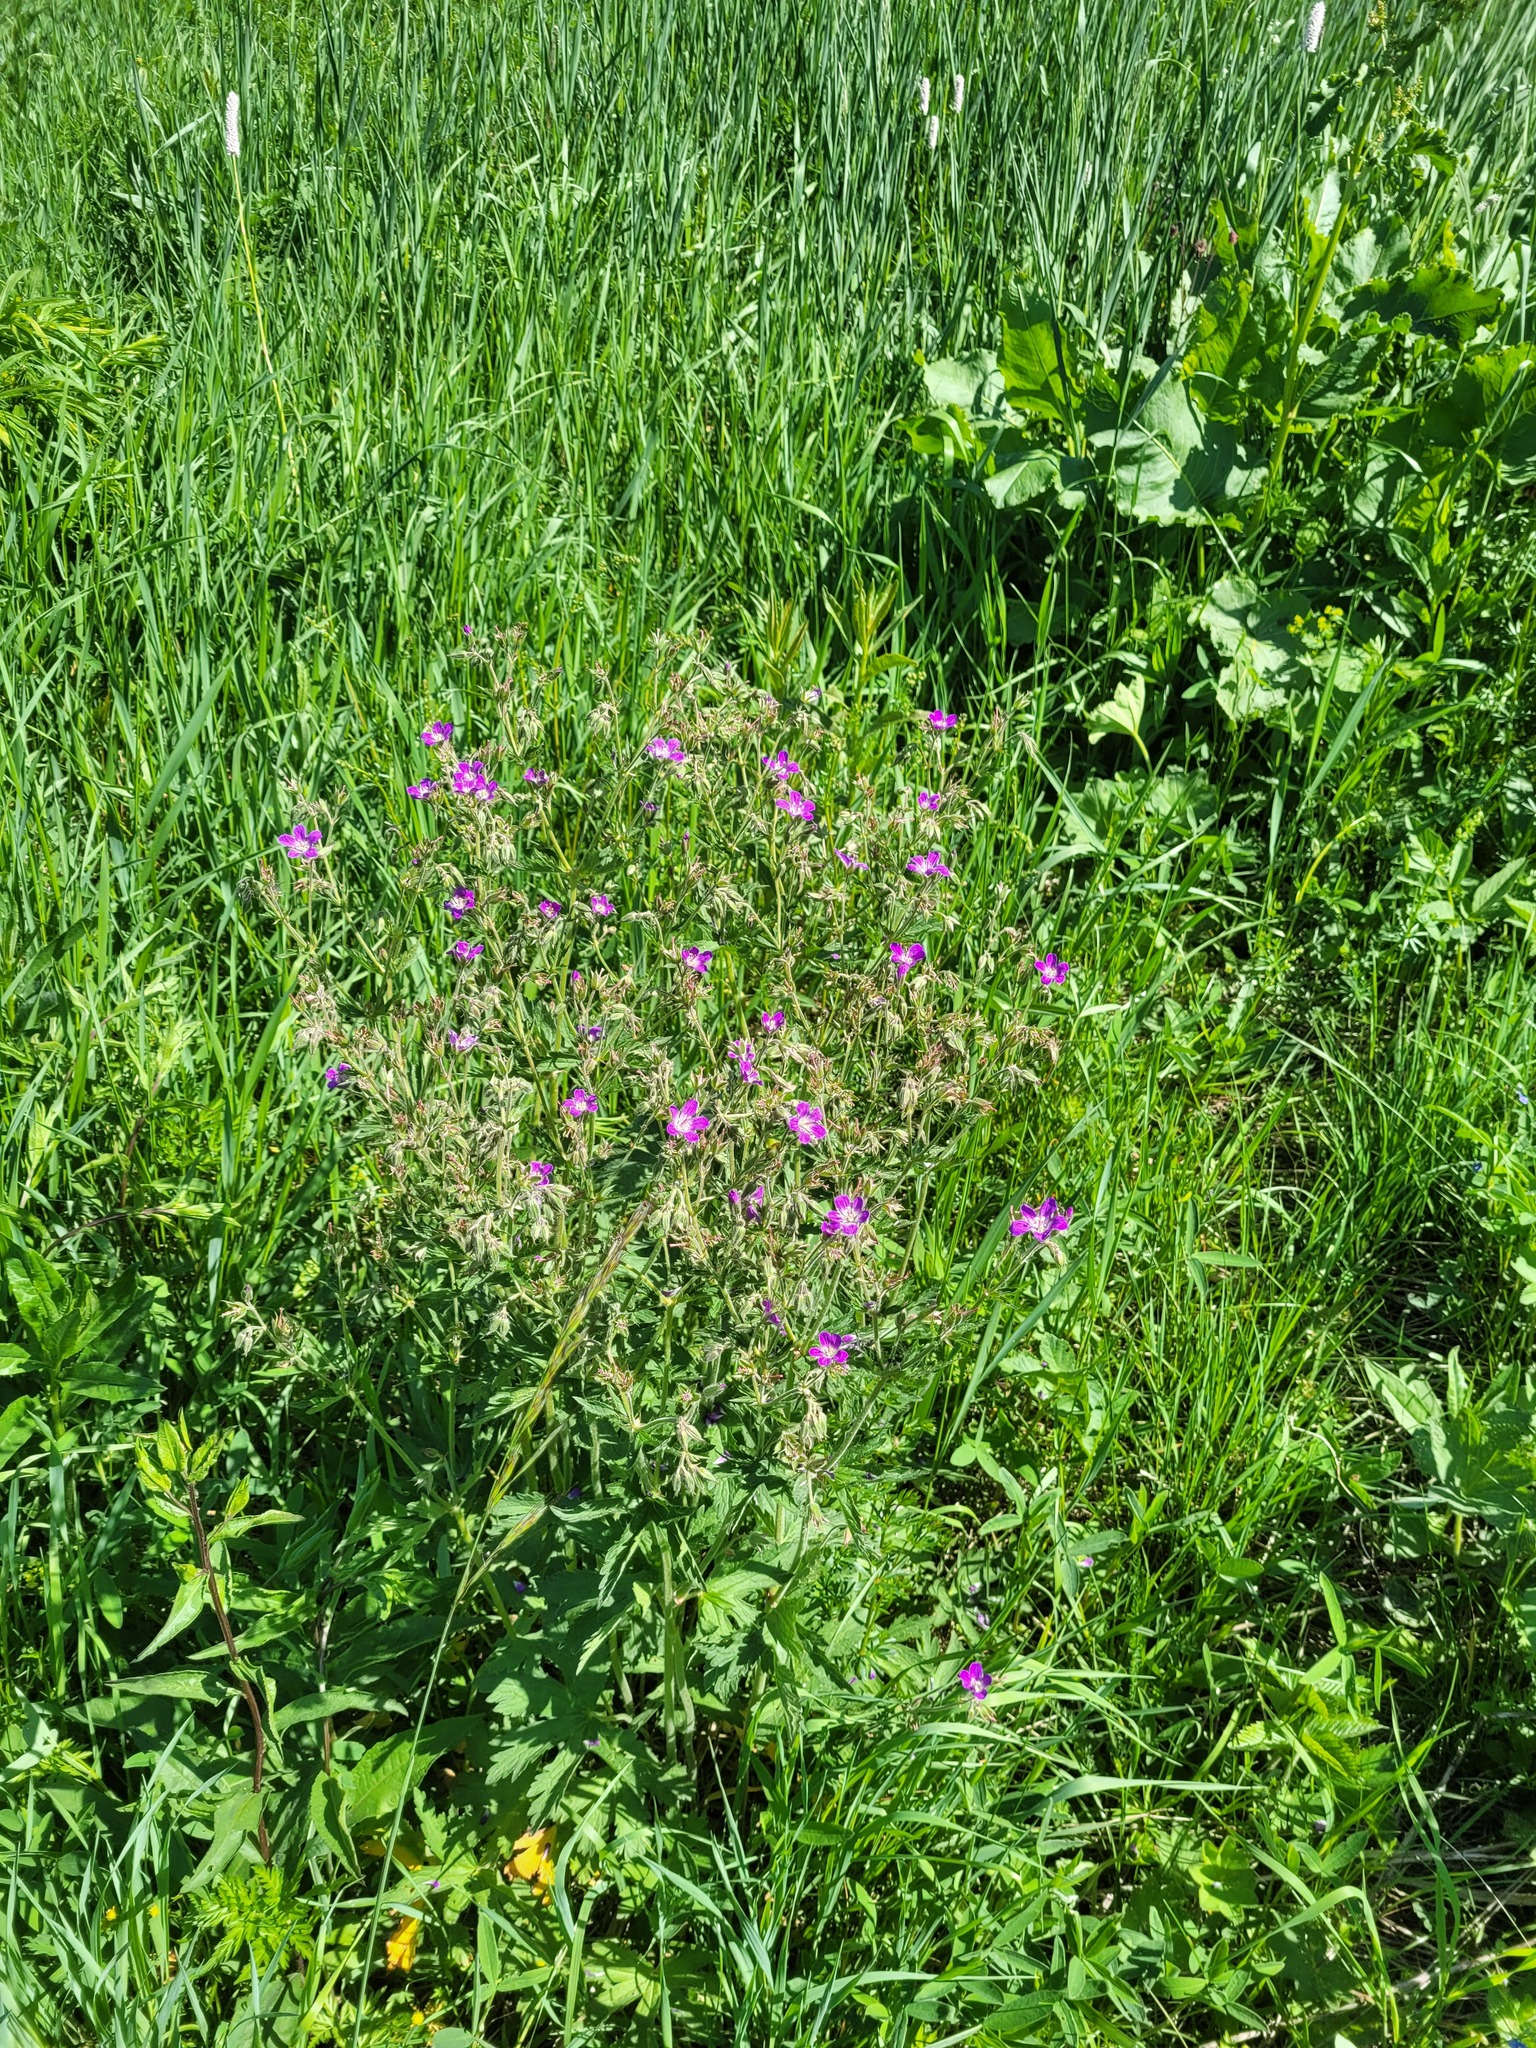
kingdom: Plantae
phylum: Tracheophyta
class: Magnoliopsida
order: Geraniales
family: Geraniaceae
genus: Geranium
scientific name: Geranium sylvaticum
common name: Wood crane's-bill
